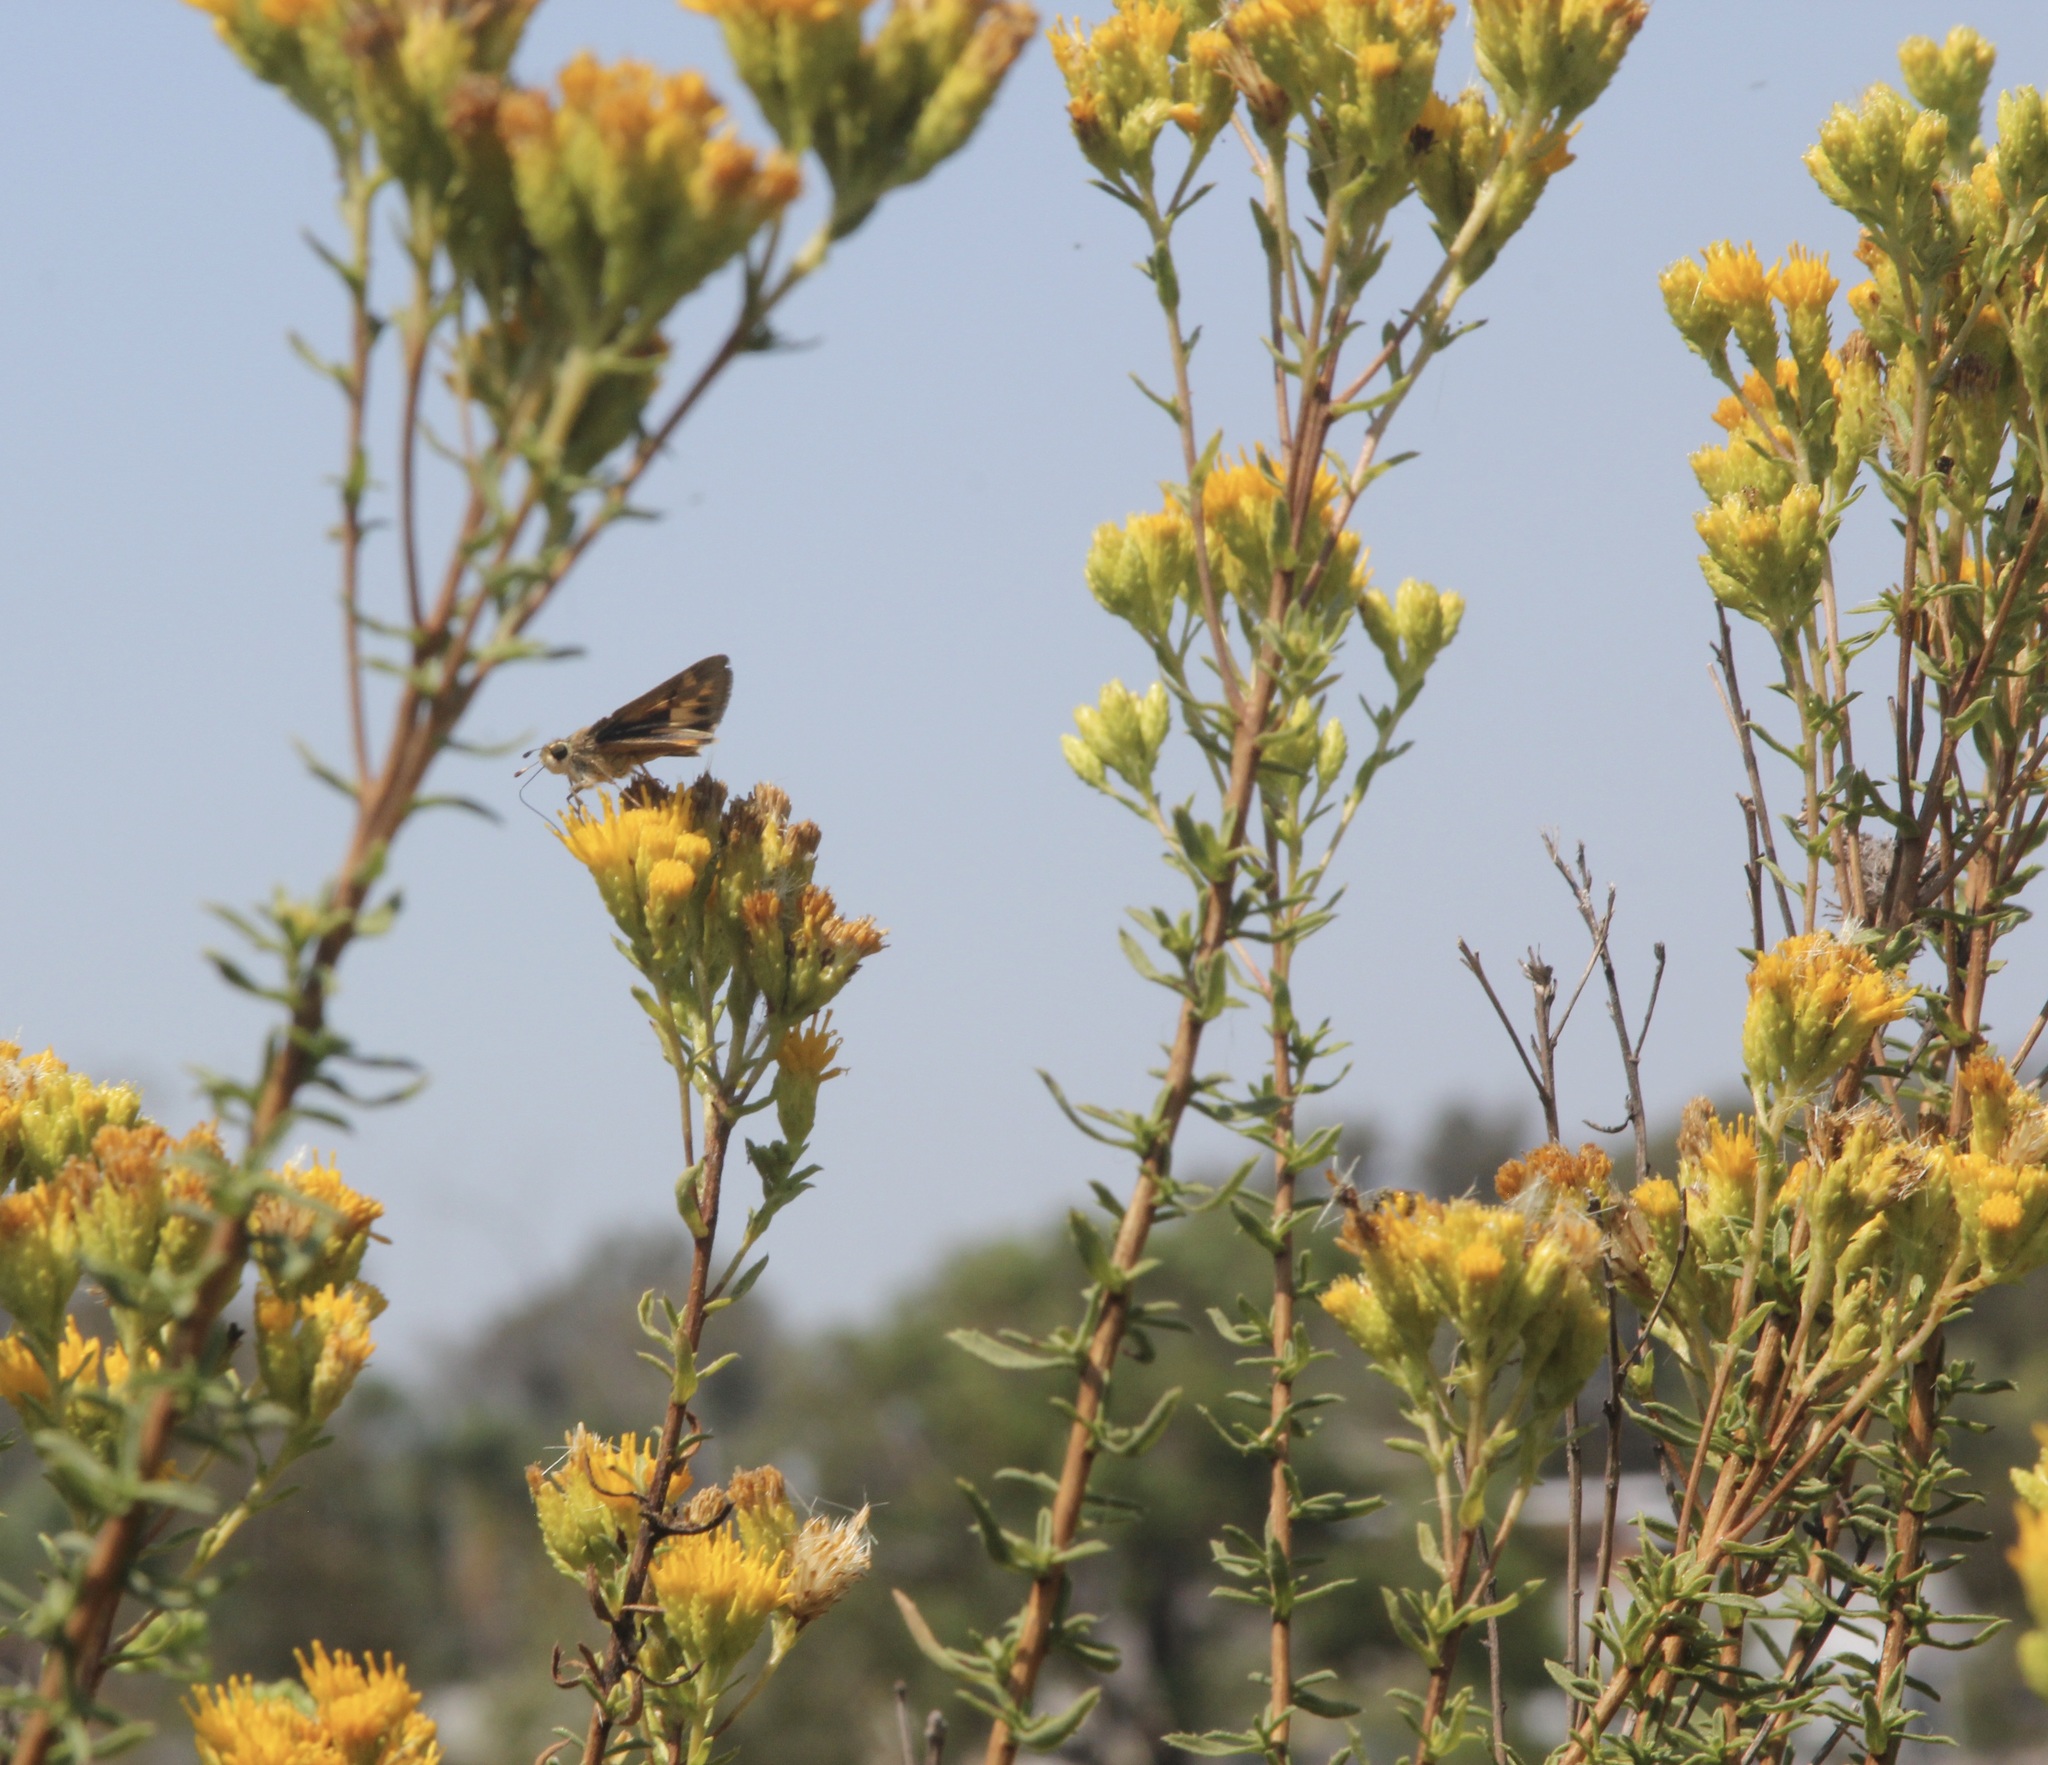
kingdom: Plantae
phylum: Tracheophyta
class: Magnoliopsida
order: Asterales
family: Asteraceae
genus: Isocoma
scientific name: Isocoma menziesii
